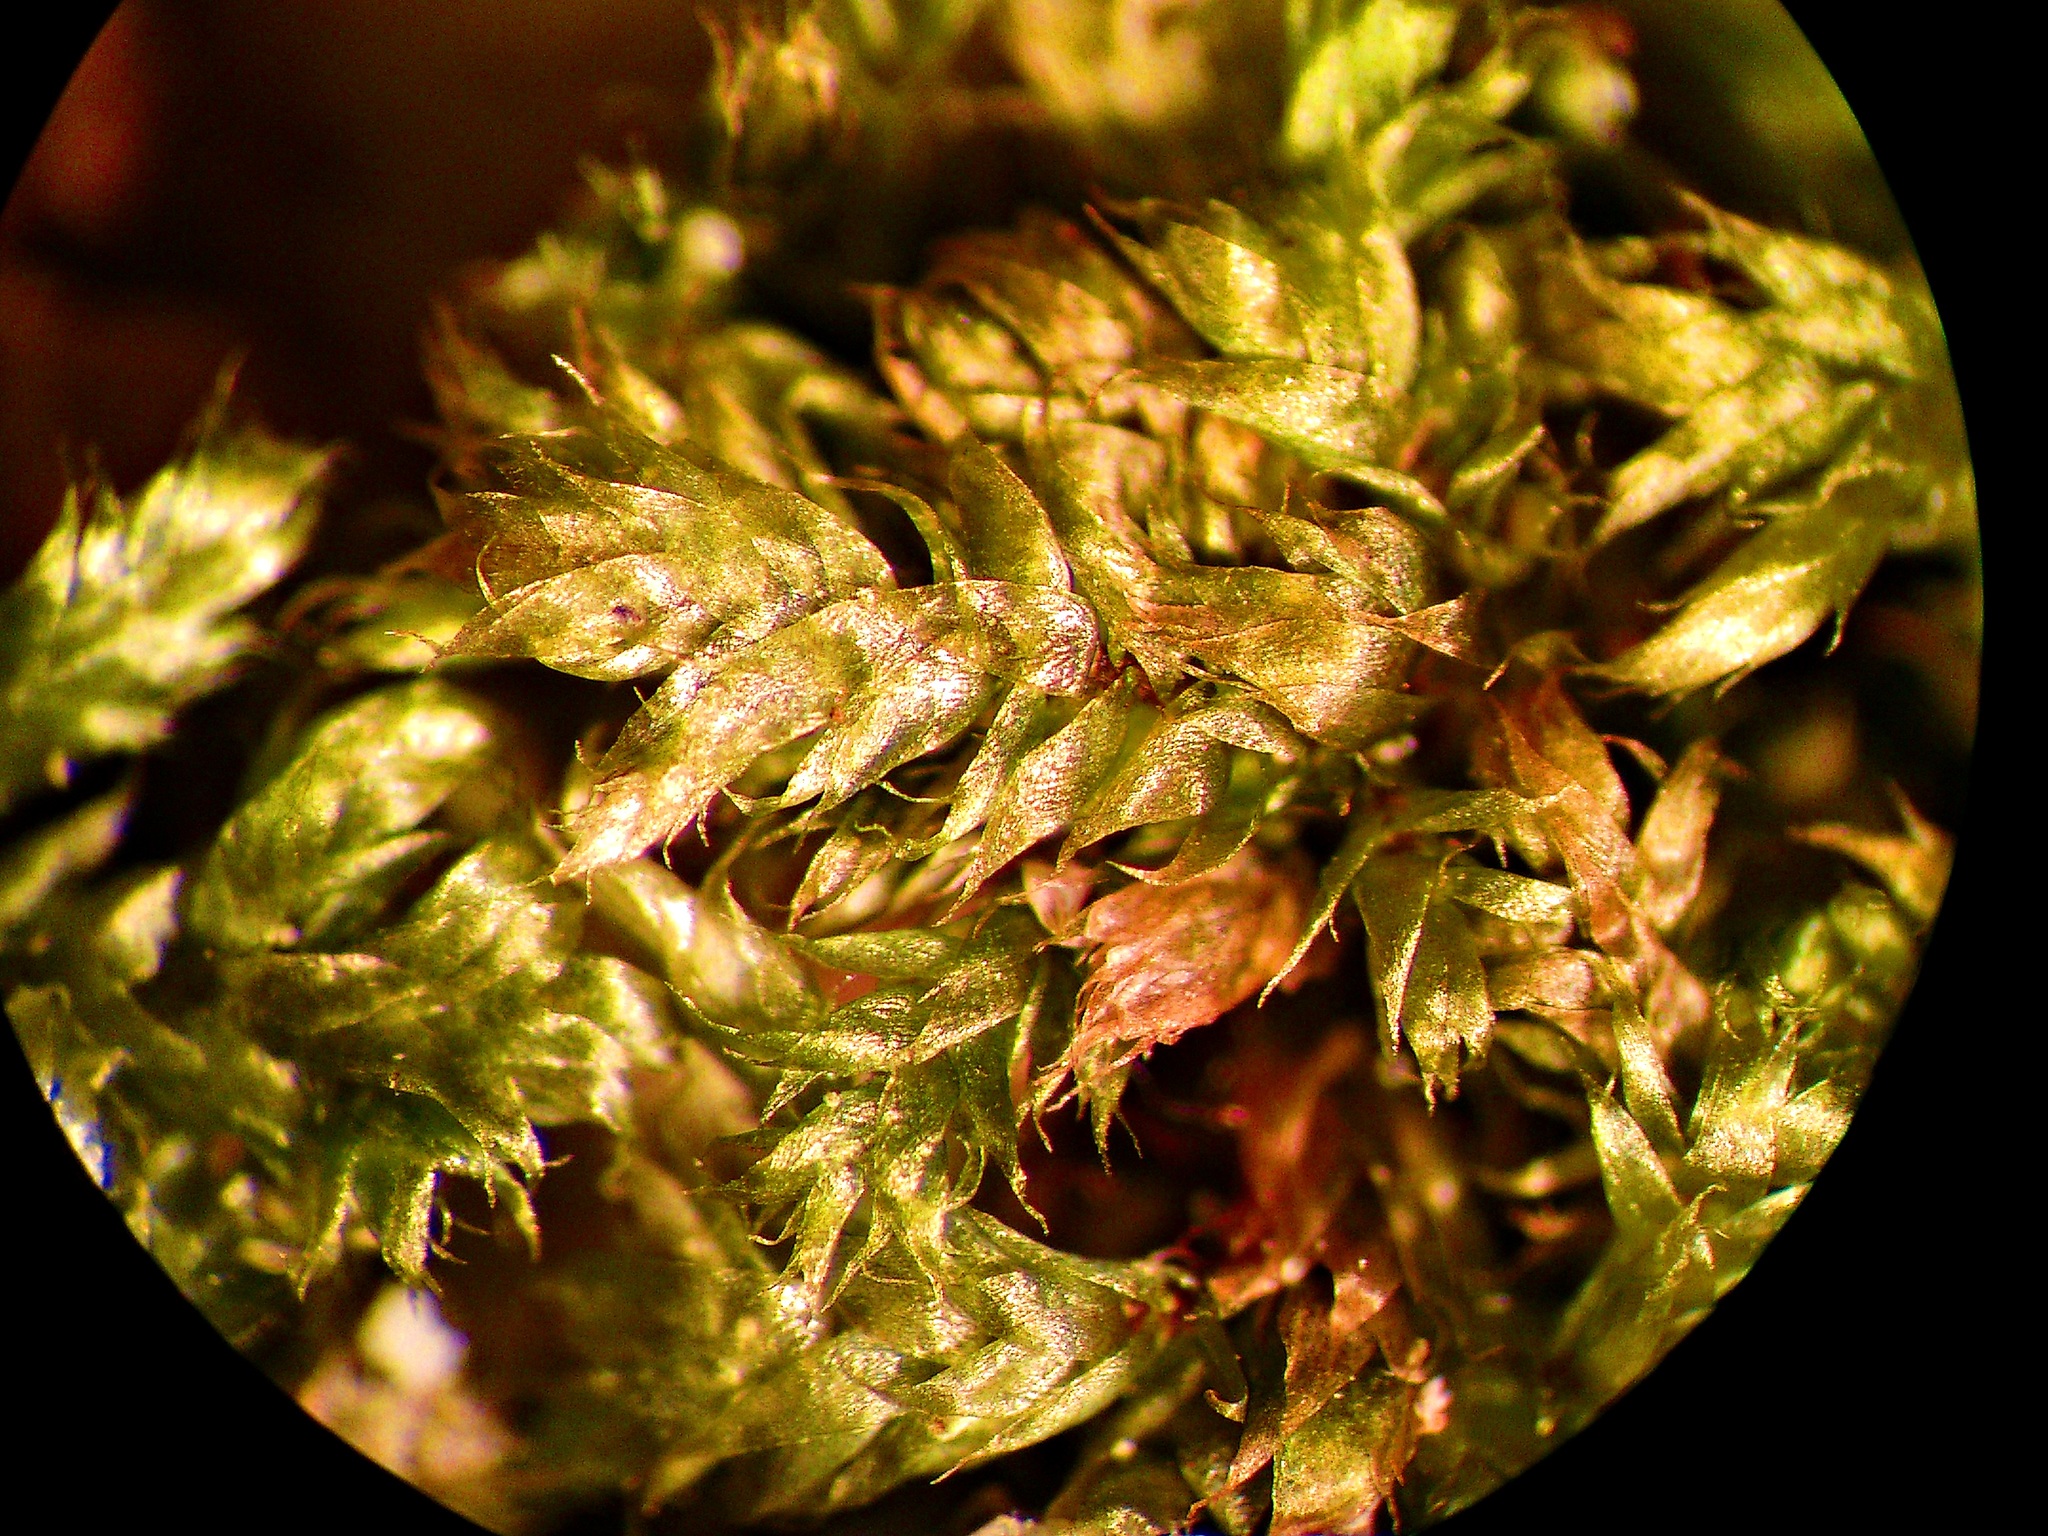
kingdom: Plantae
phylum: Bryophyta
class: Bryopsida
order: Hypnales
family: Pylaisiadelphaceae
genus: Brotherella
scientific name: Brotherella recurvans
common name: Recurved brotherella
